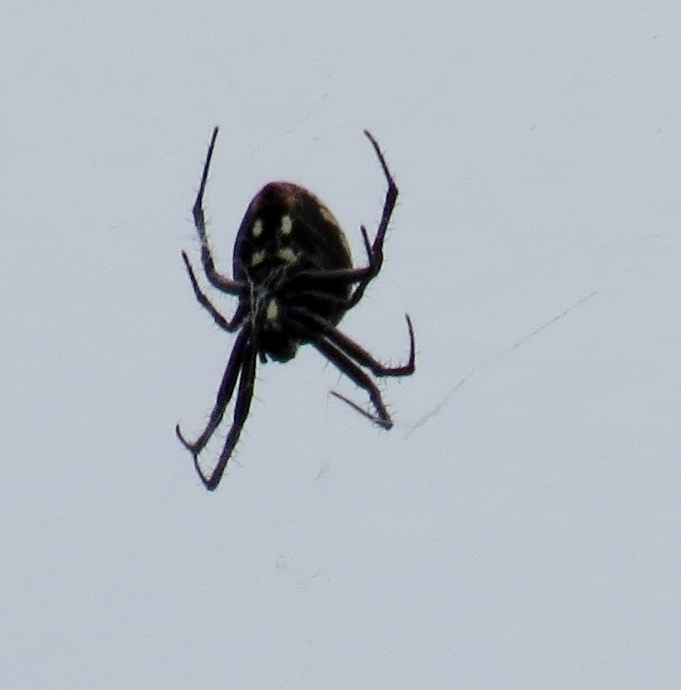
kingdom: Animalia
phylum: Arthropoda
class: Arachnida
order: Araneae
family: Araneidae
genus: Neoscona
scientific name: Neoscona oaxacensis
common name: Orb weavers
